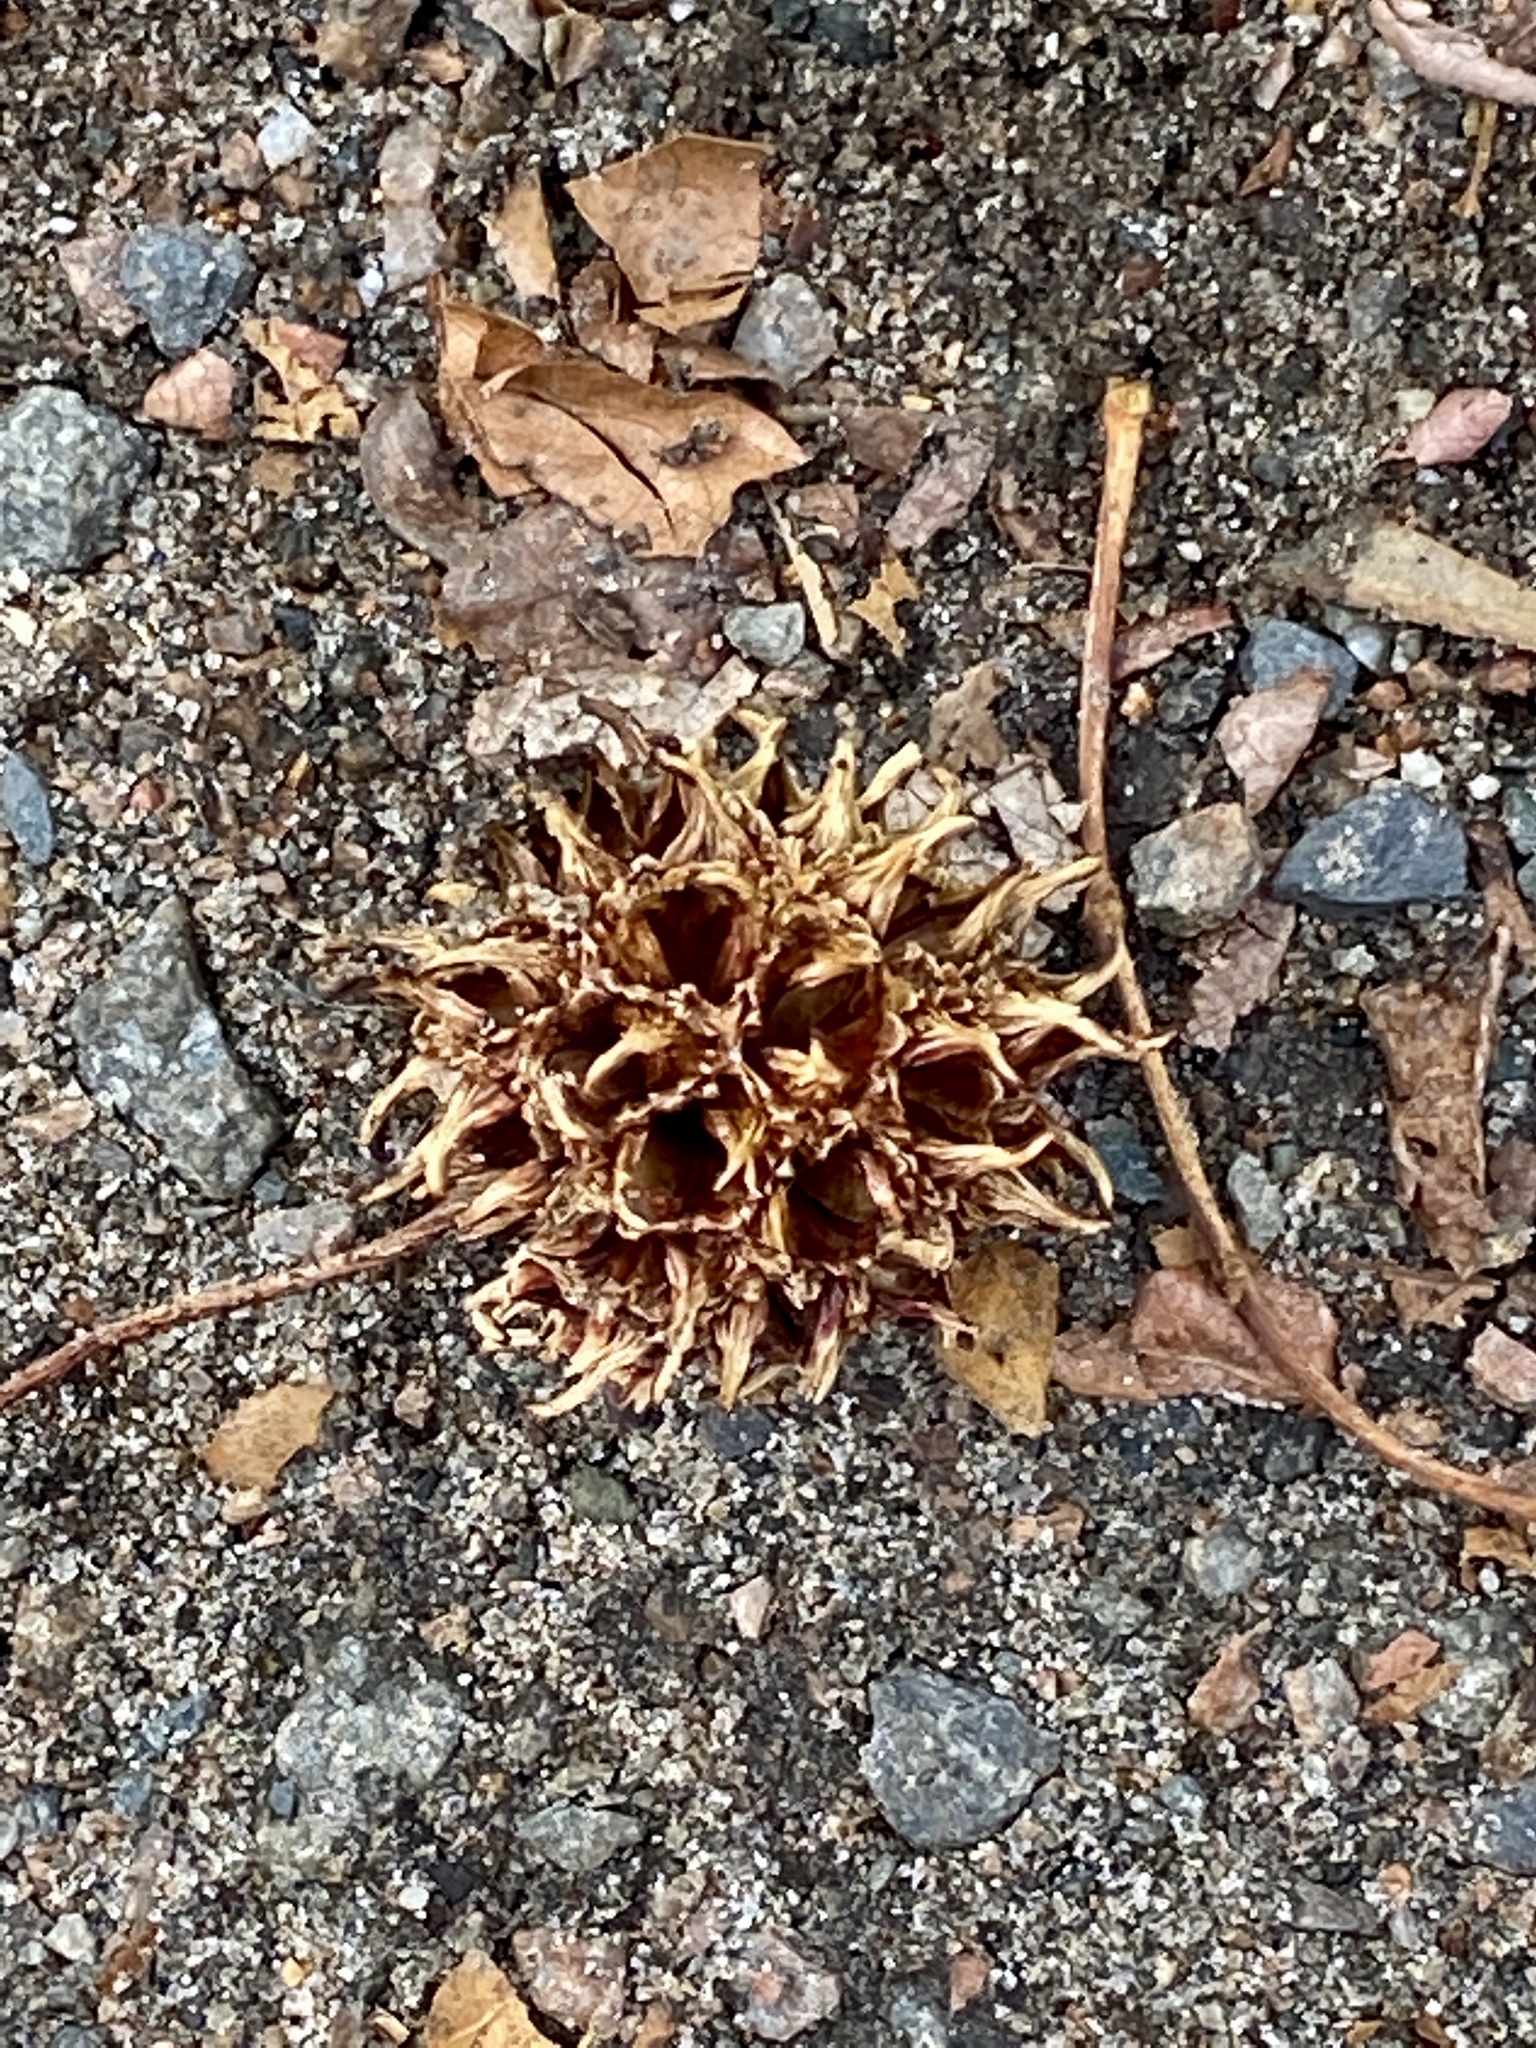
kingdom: Plantae
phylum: Tracheophyta
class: Magnoliopsida
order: Saxifragales
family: Altingiaceae
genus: Liquidambar
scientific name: Liquidambar styraciflua
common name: Sweet gum
